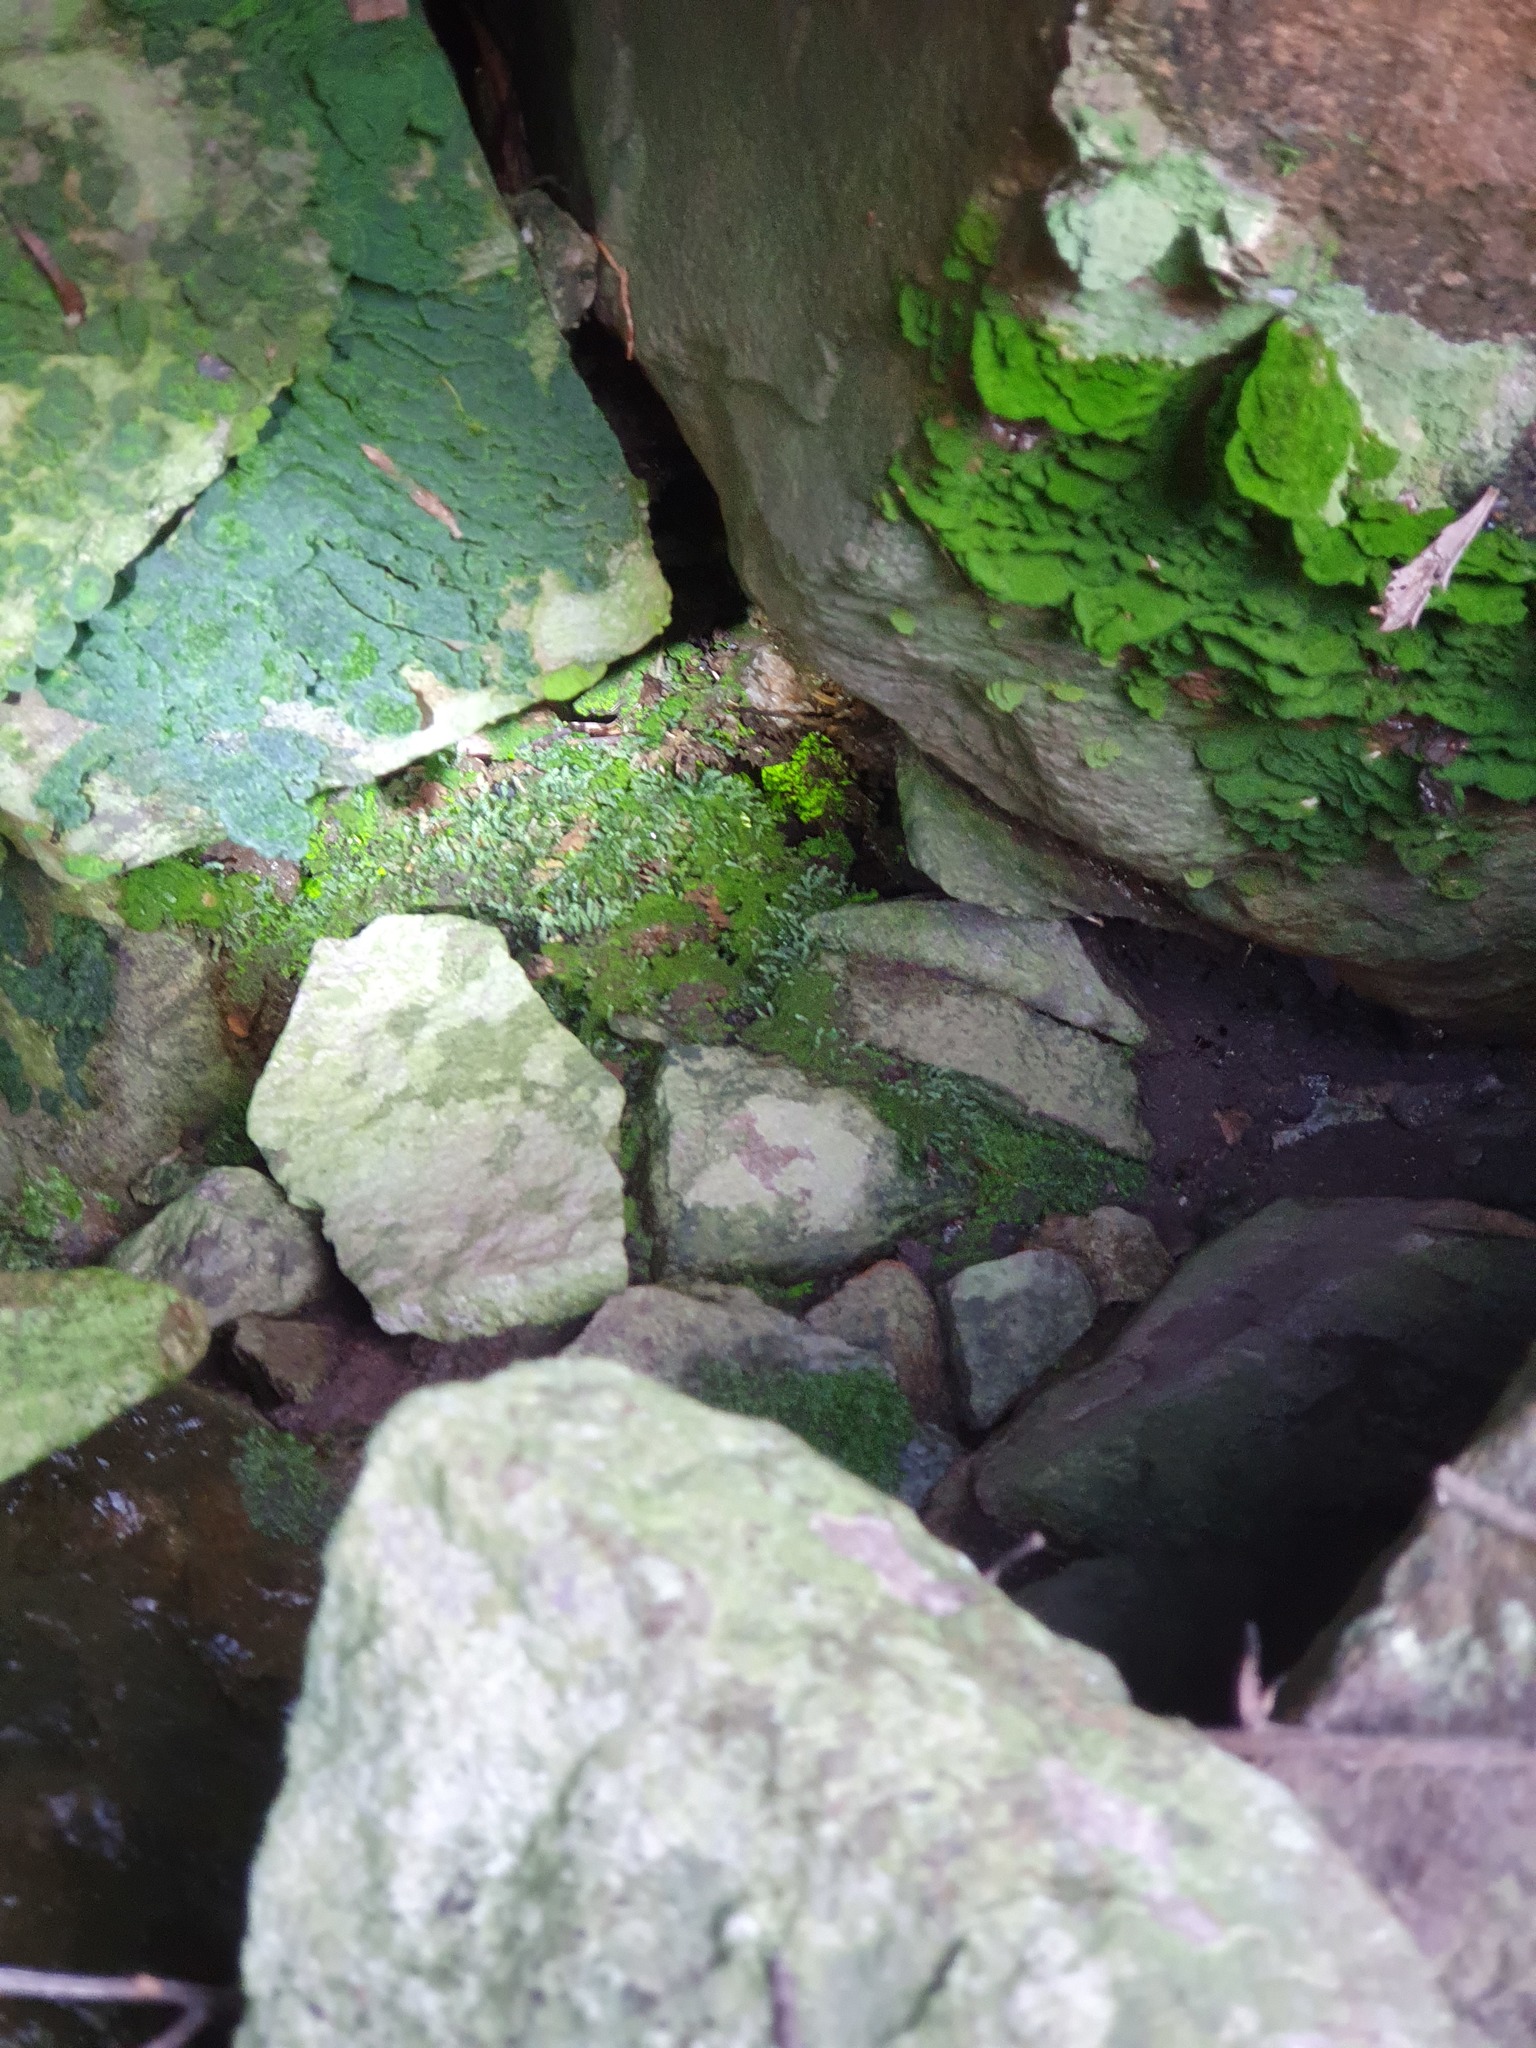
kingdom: Plantae
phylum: Bryophyta
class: Bryopsida
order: Pottiales
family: Mitteniaceae
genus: Mittenia
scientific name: Mittenia plumula
